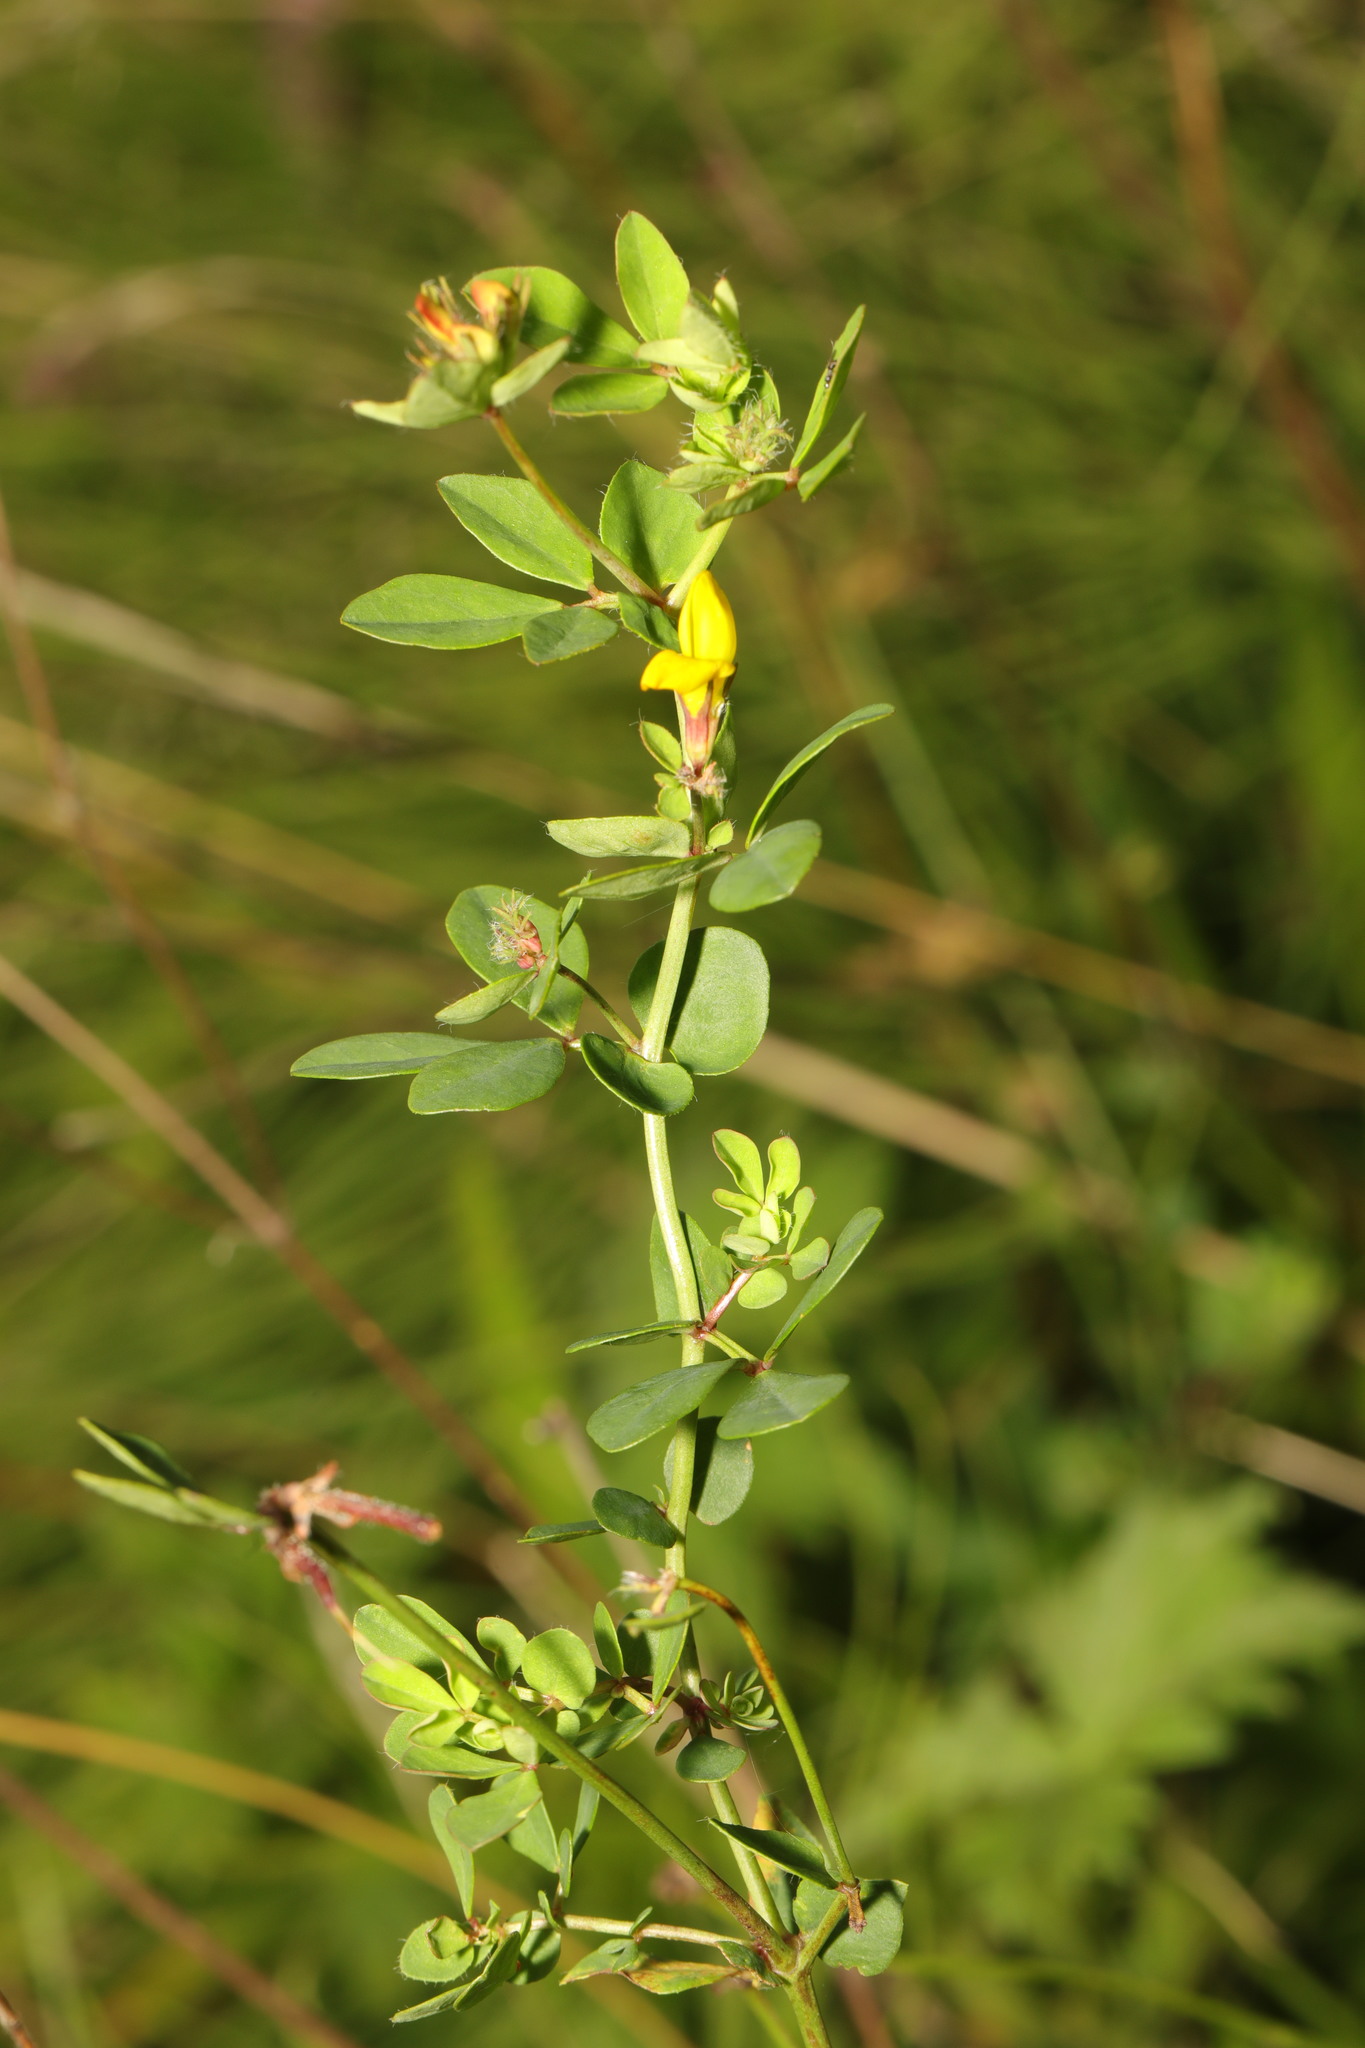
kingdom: Plantae
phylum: Tracheophyta
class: Magnoliopsida
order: Fabales
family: Fabaceae
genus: Lotus
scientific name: Lotus pedunculatus
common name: Greater birdsfoot-trefoil
